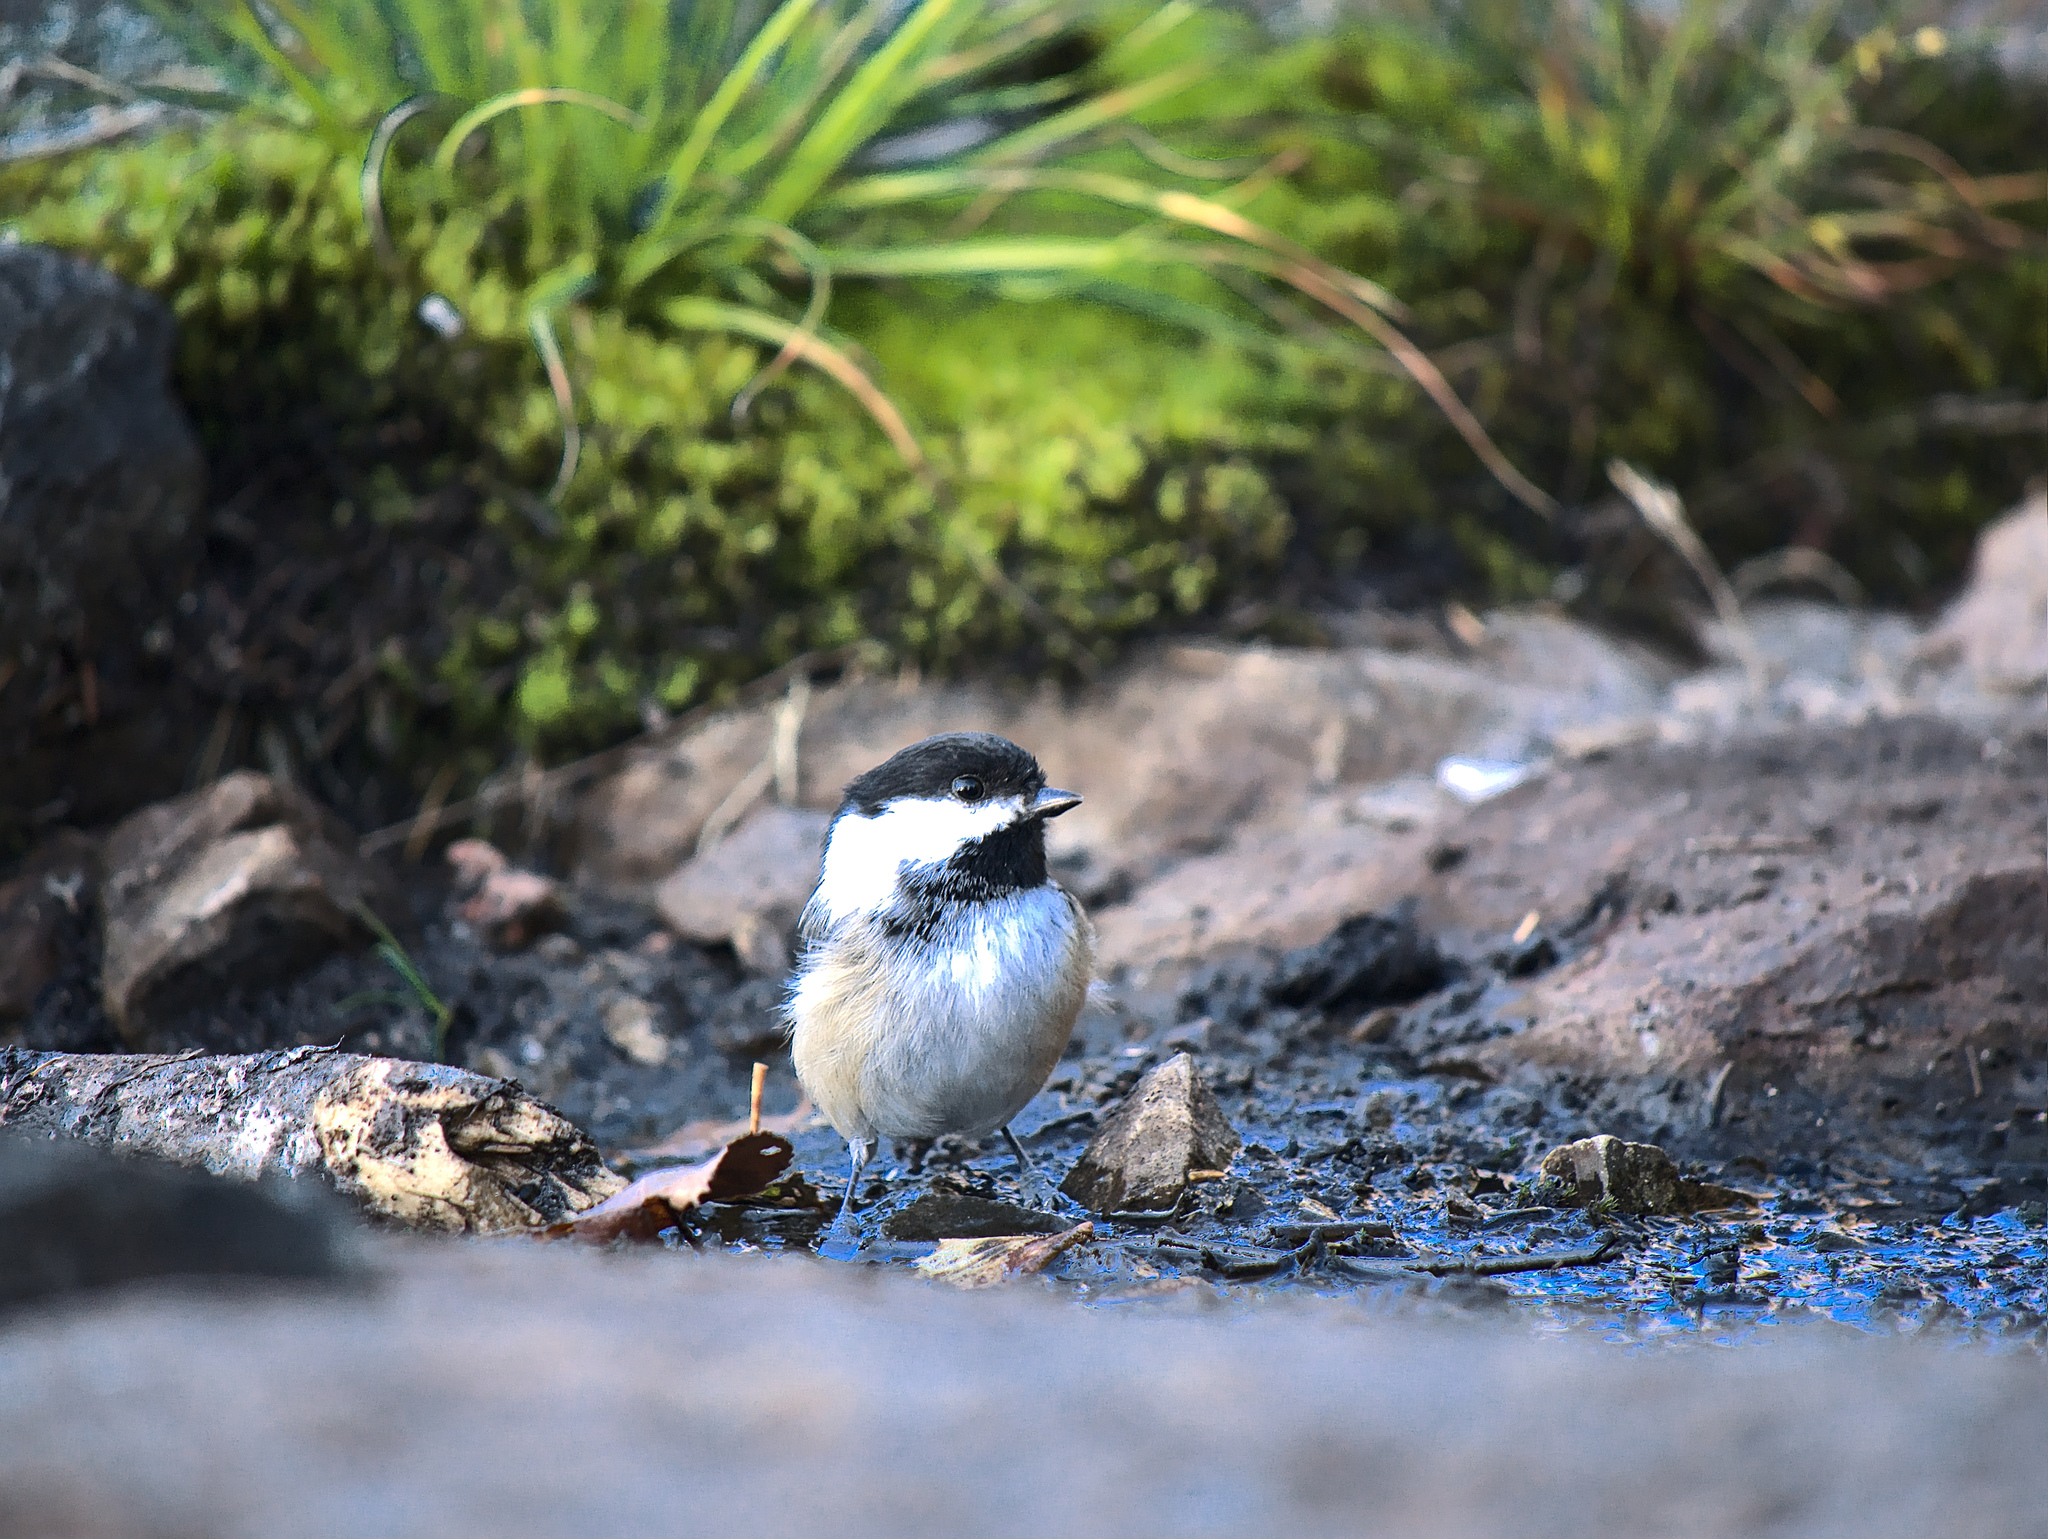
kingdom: Animalia
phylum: Chordata
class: Aves
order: Passeriformes
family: Paridae
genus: Poecile
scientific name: Poecile atricapillus
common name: Black-capped chickadee
